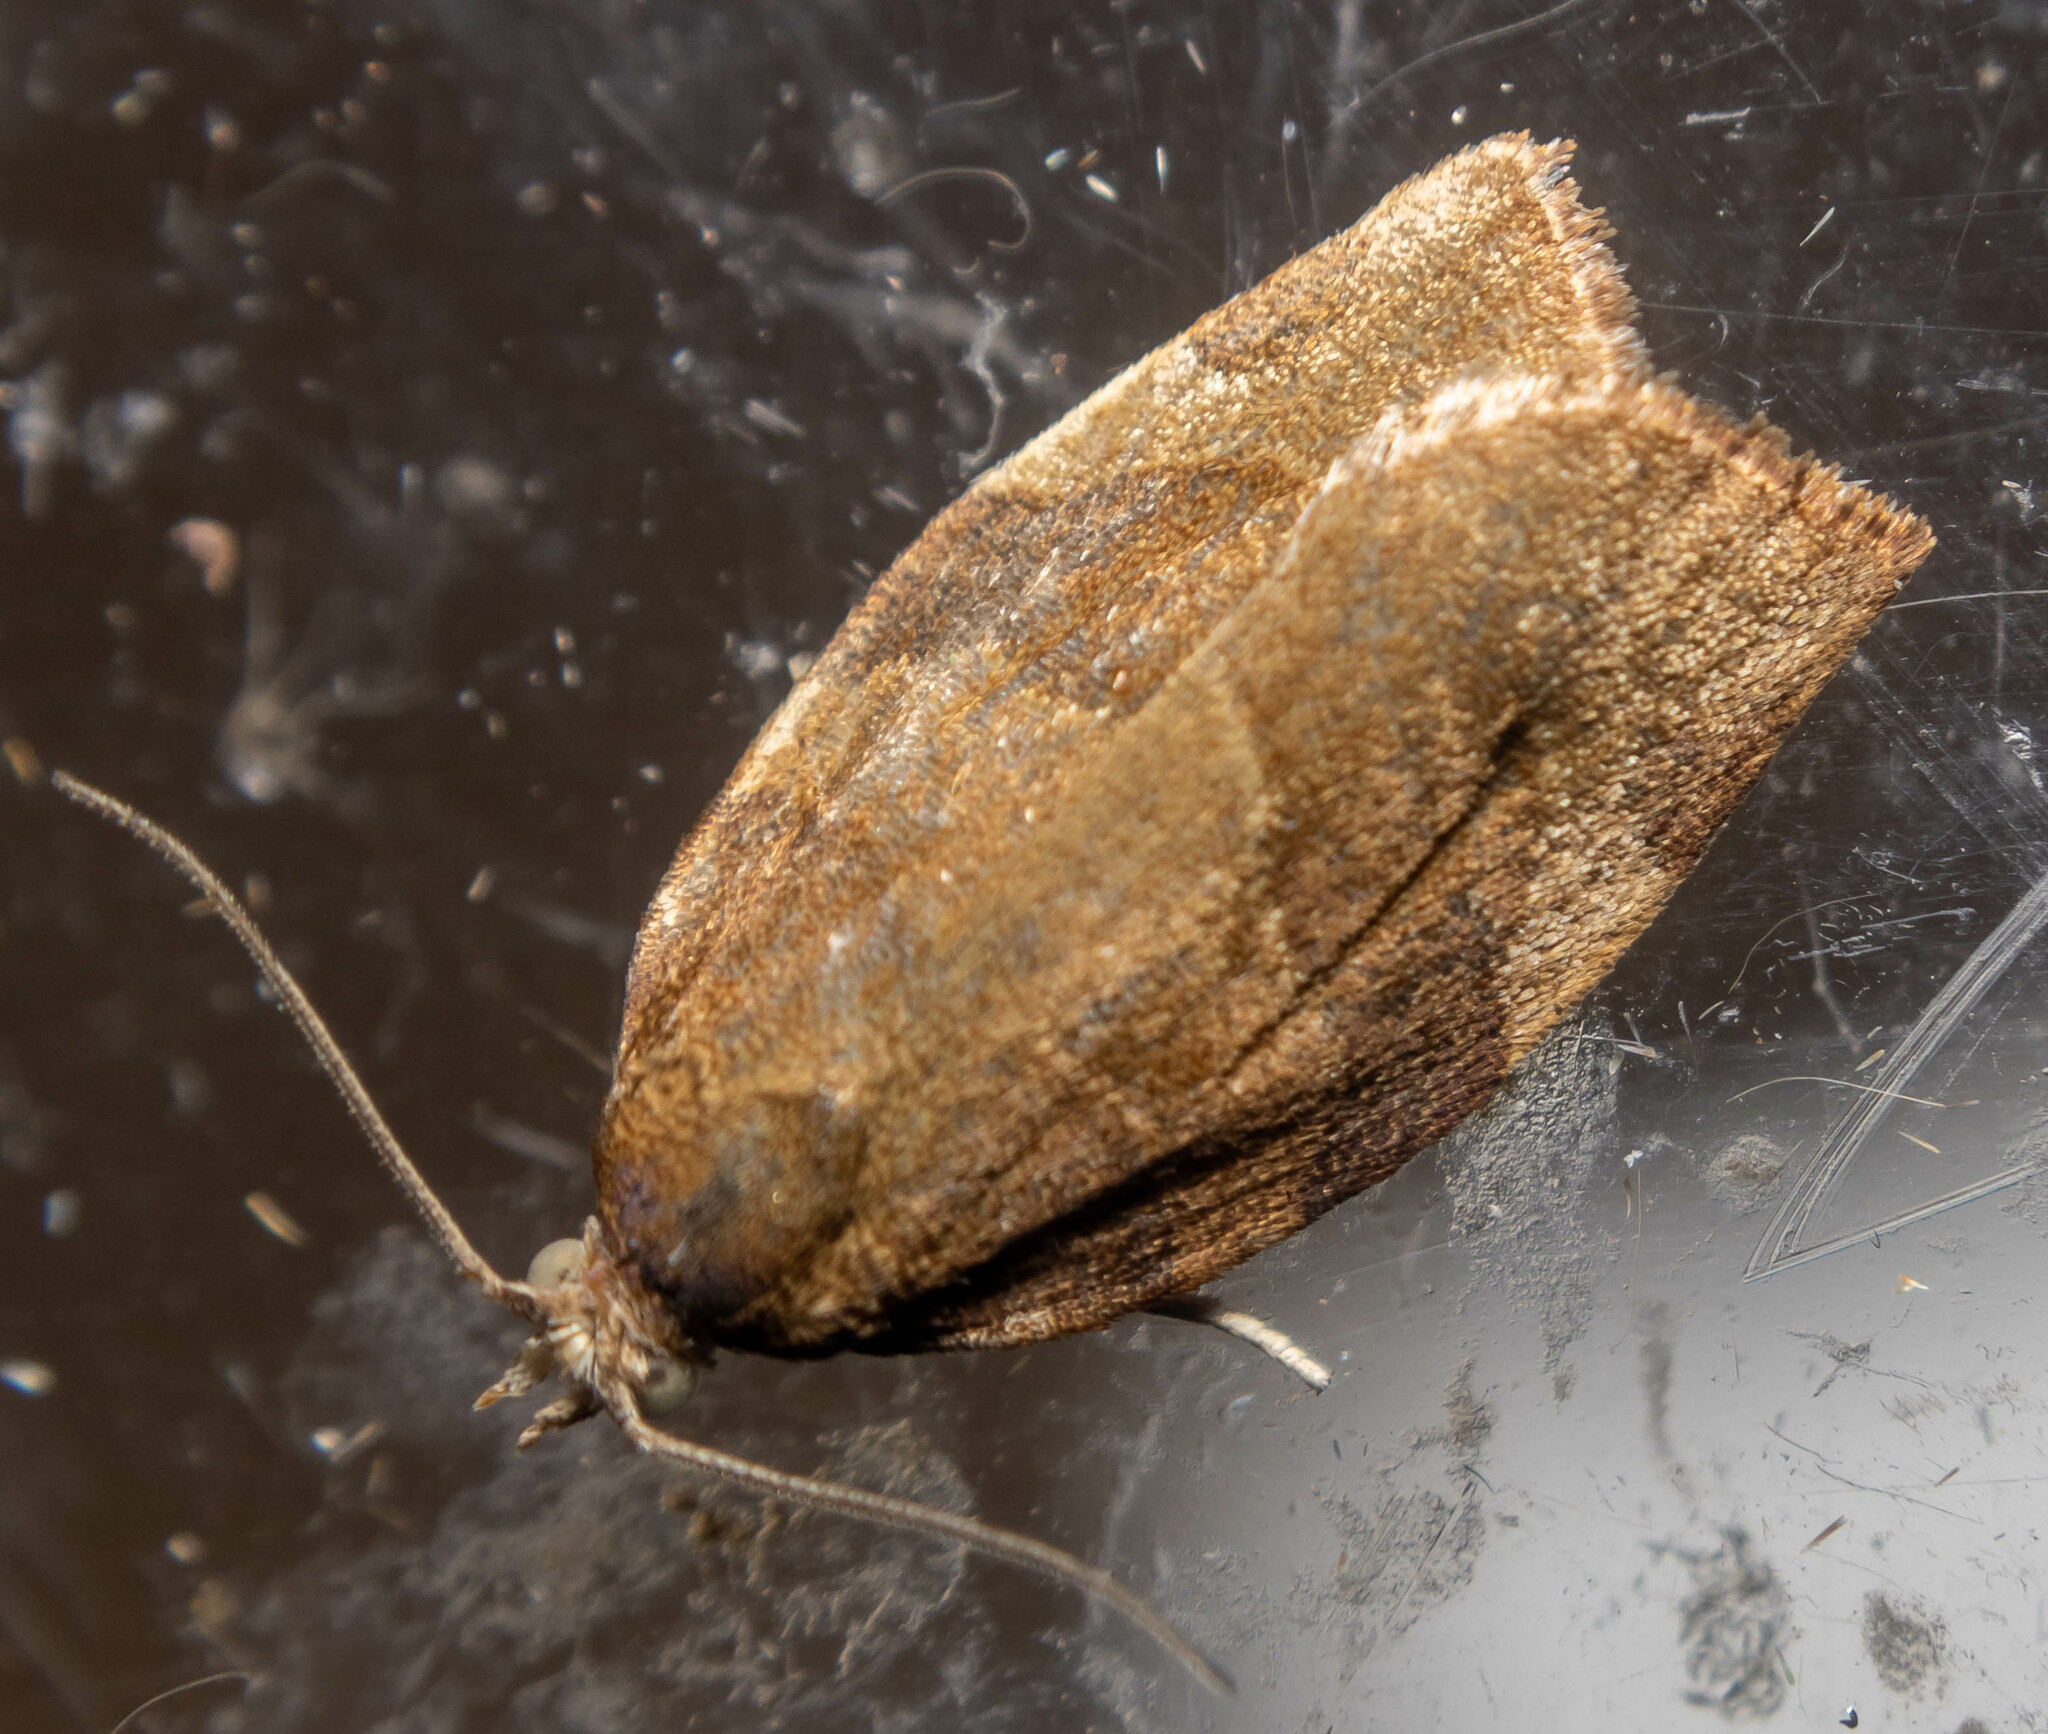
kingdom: Animalia
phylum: Arthropoda
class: Insecta
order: Lepidoptera
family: Tortricidae
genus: Pandemis
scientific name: Pandemis cerasana
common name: Barred fruit-tree tortrix
